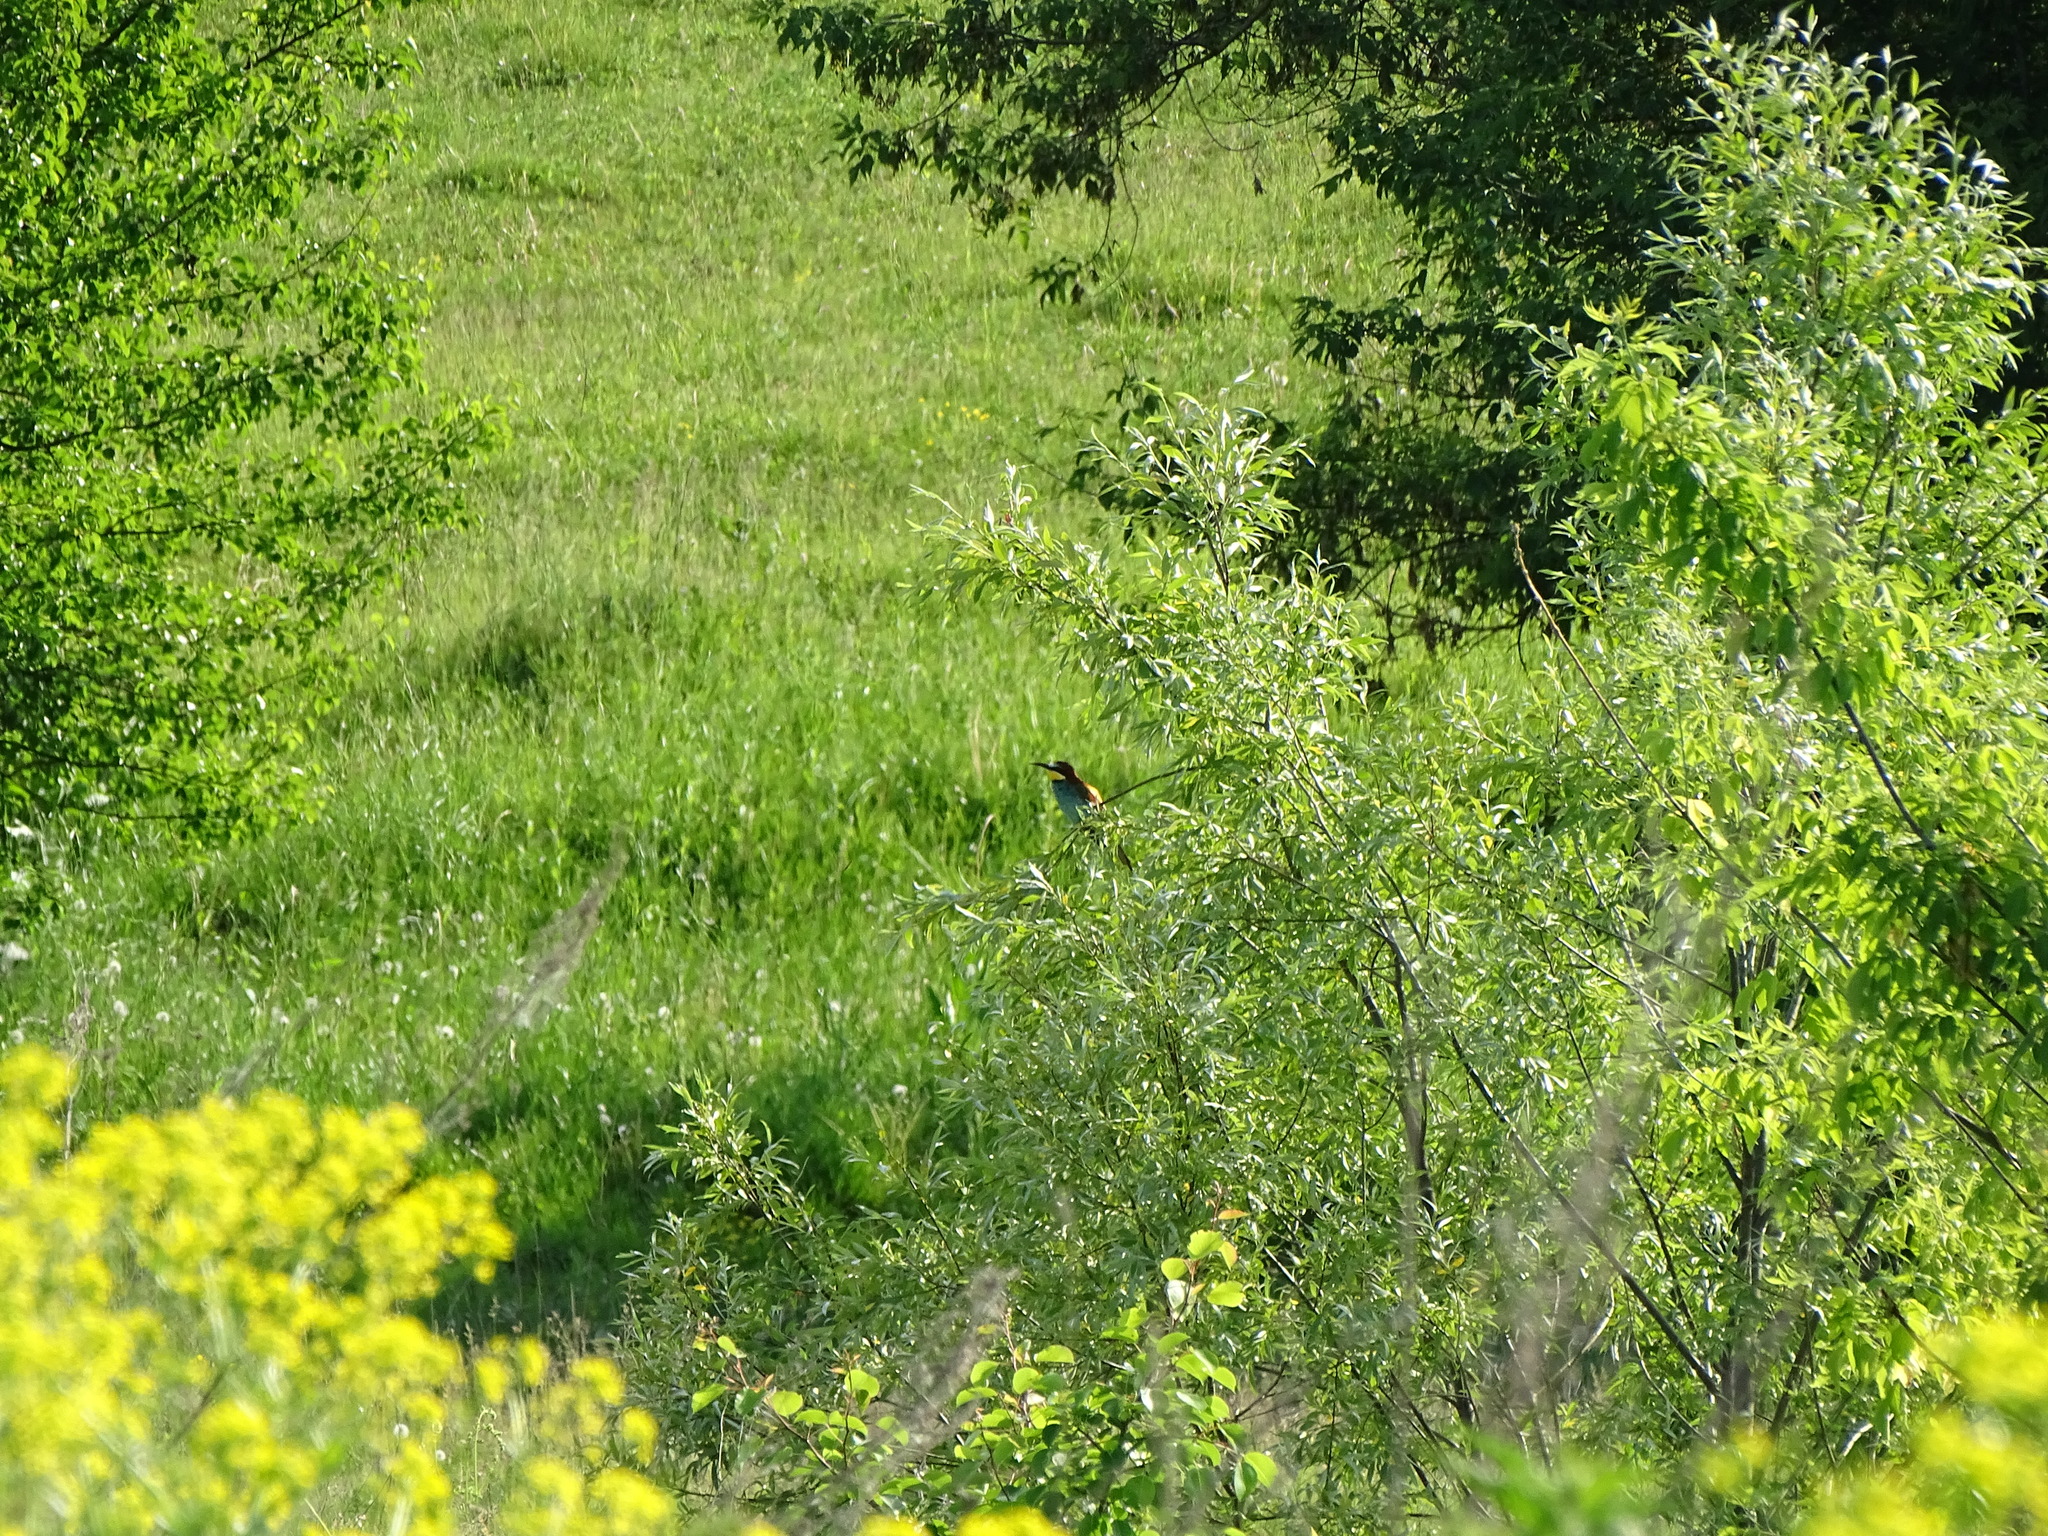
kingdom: Animalia
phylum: Chordata
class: Aves
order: Coraciiformes
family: Meropidae
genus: Merops
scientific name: Merops apiaster
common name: European bee-eater
